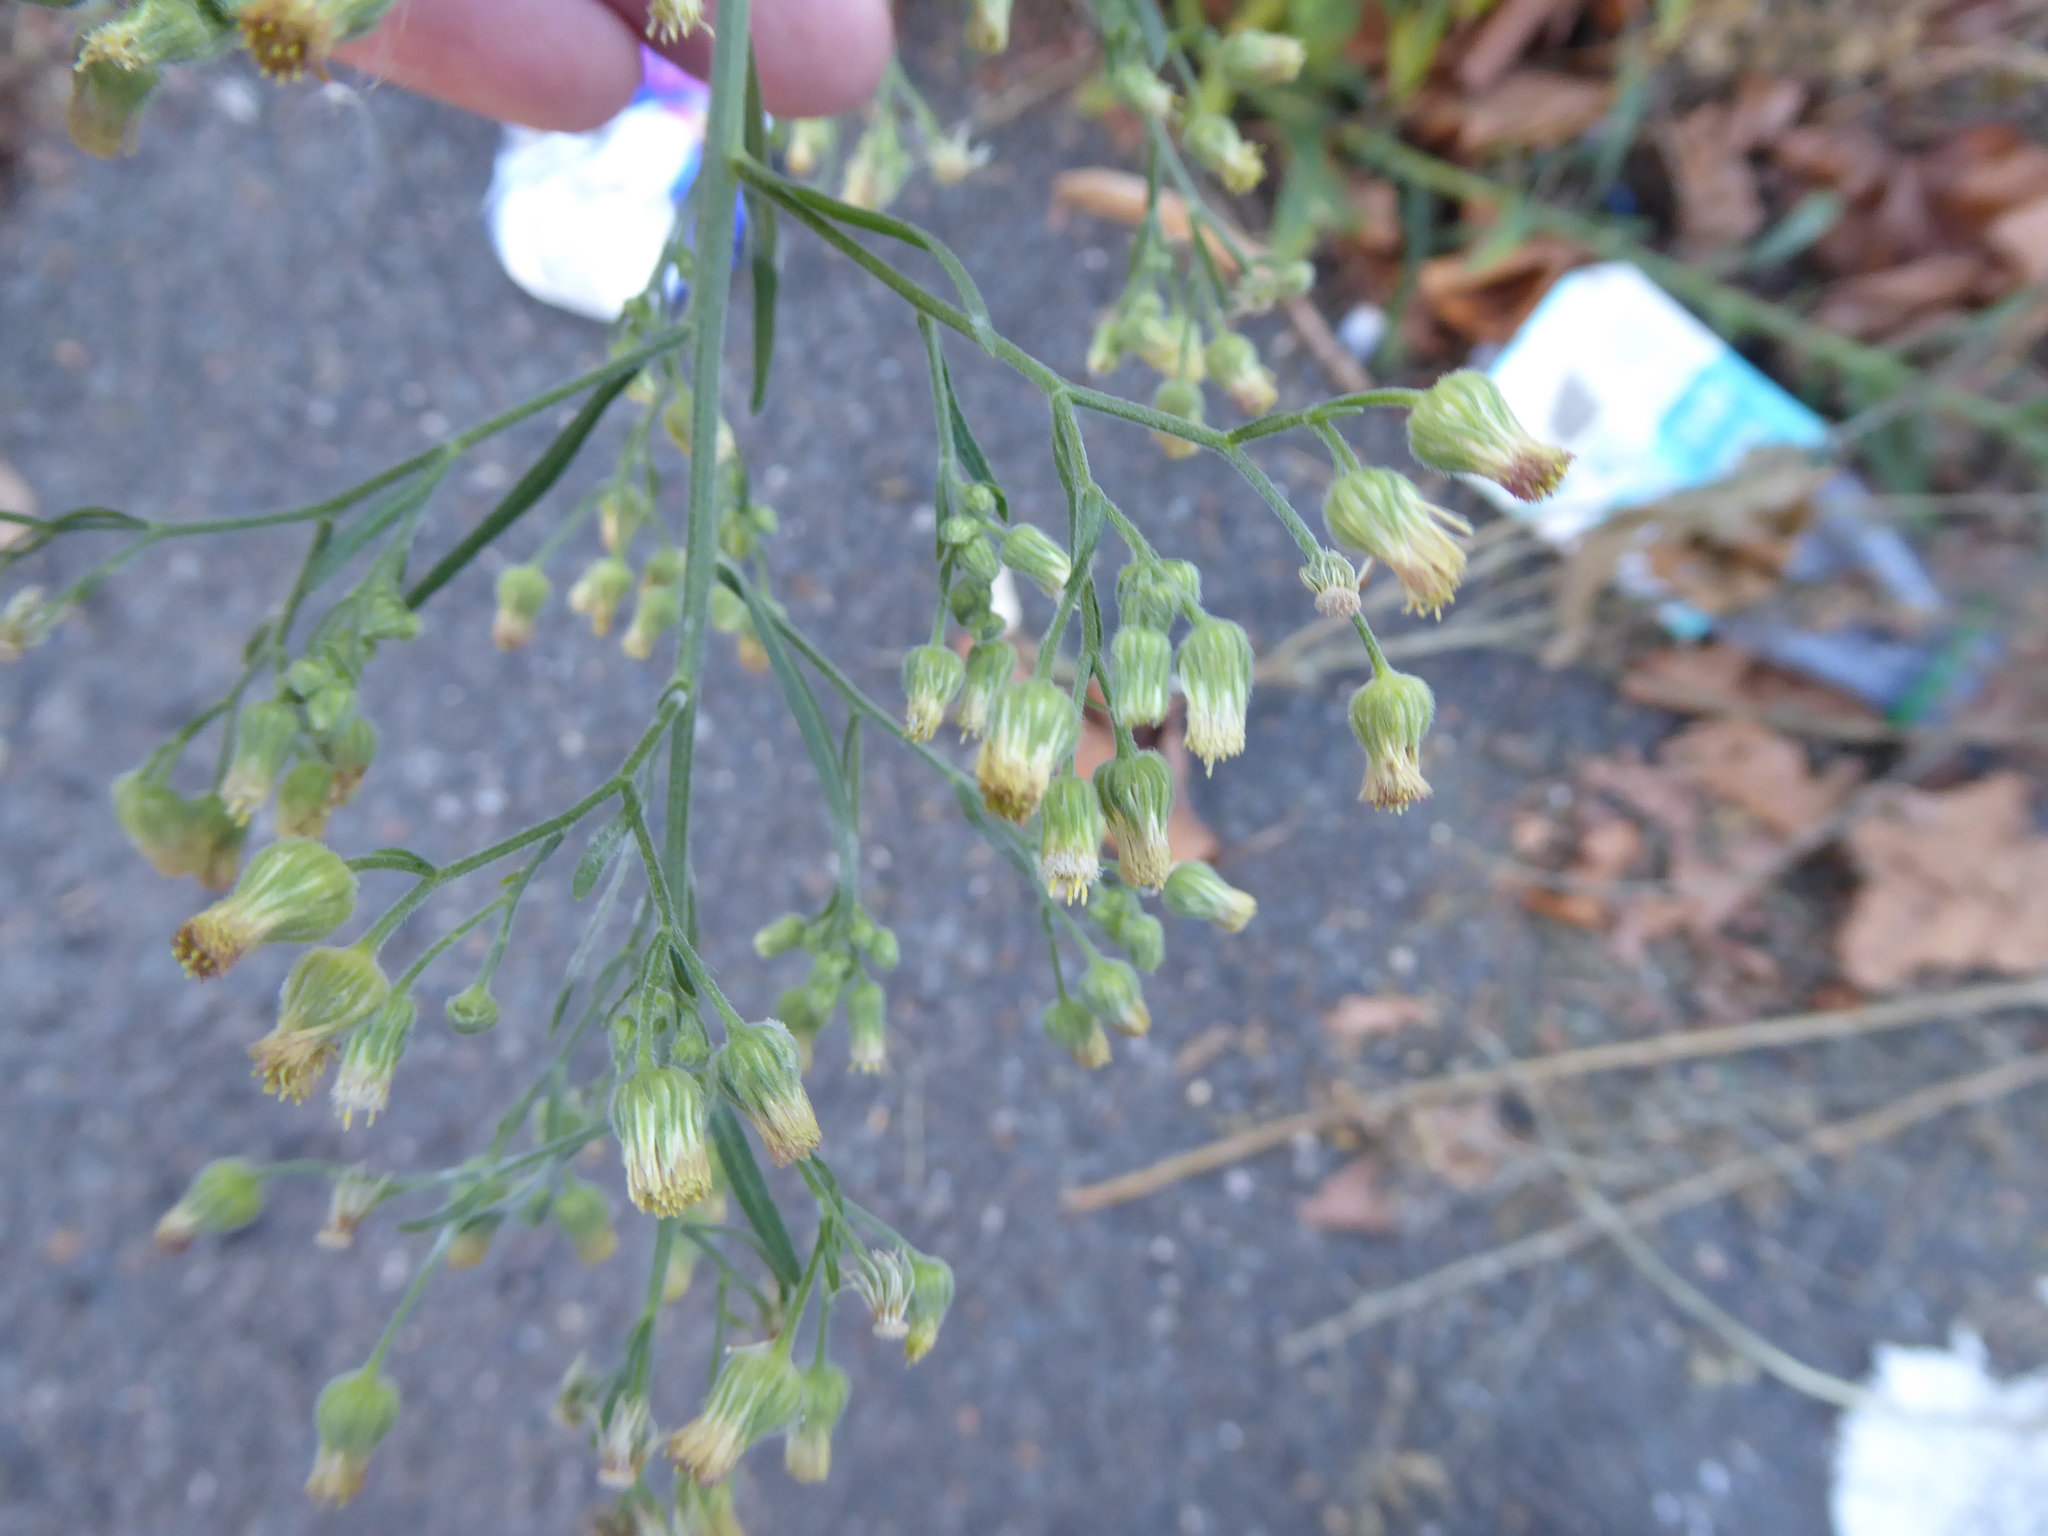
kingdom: Plantae
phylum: Tracheophyta
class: Magnoliopsida
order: Asterales
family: Asteraceae
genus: Erigeron
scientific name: Erigeron sumatrensis
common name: Daisy
